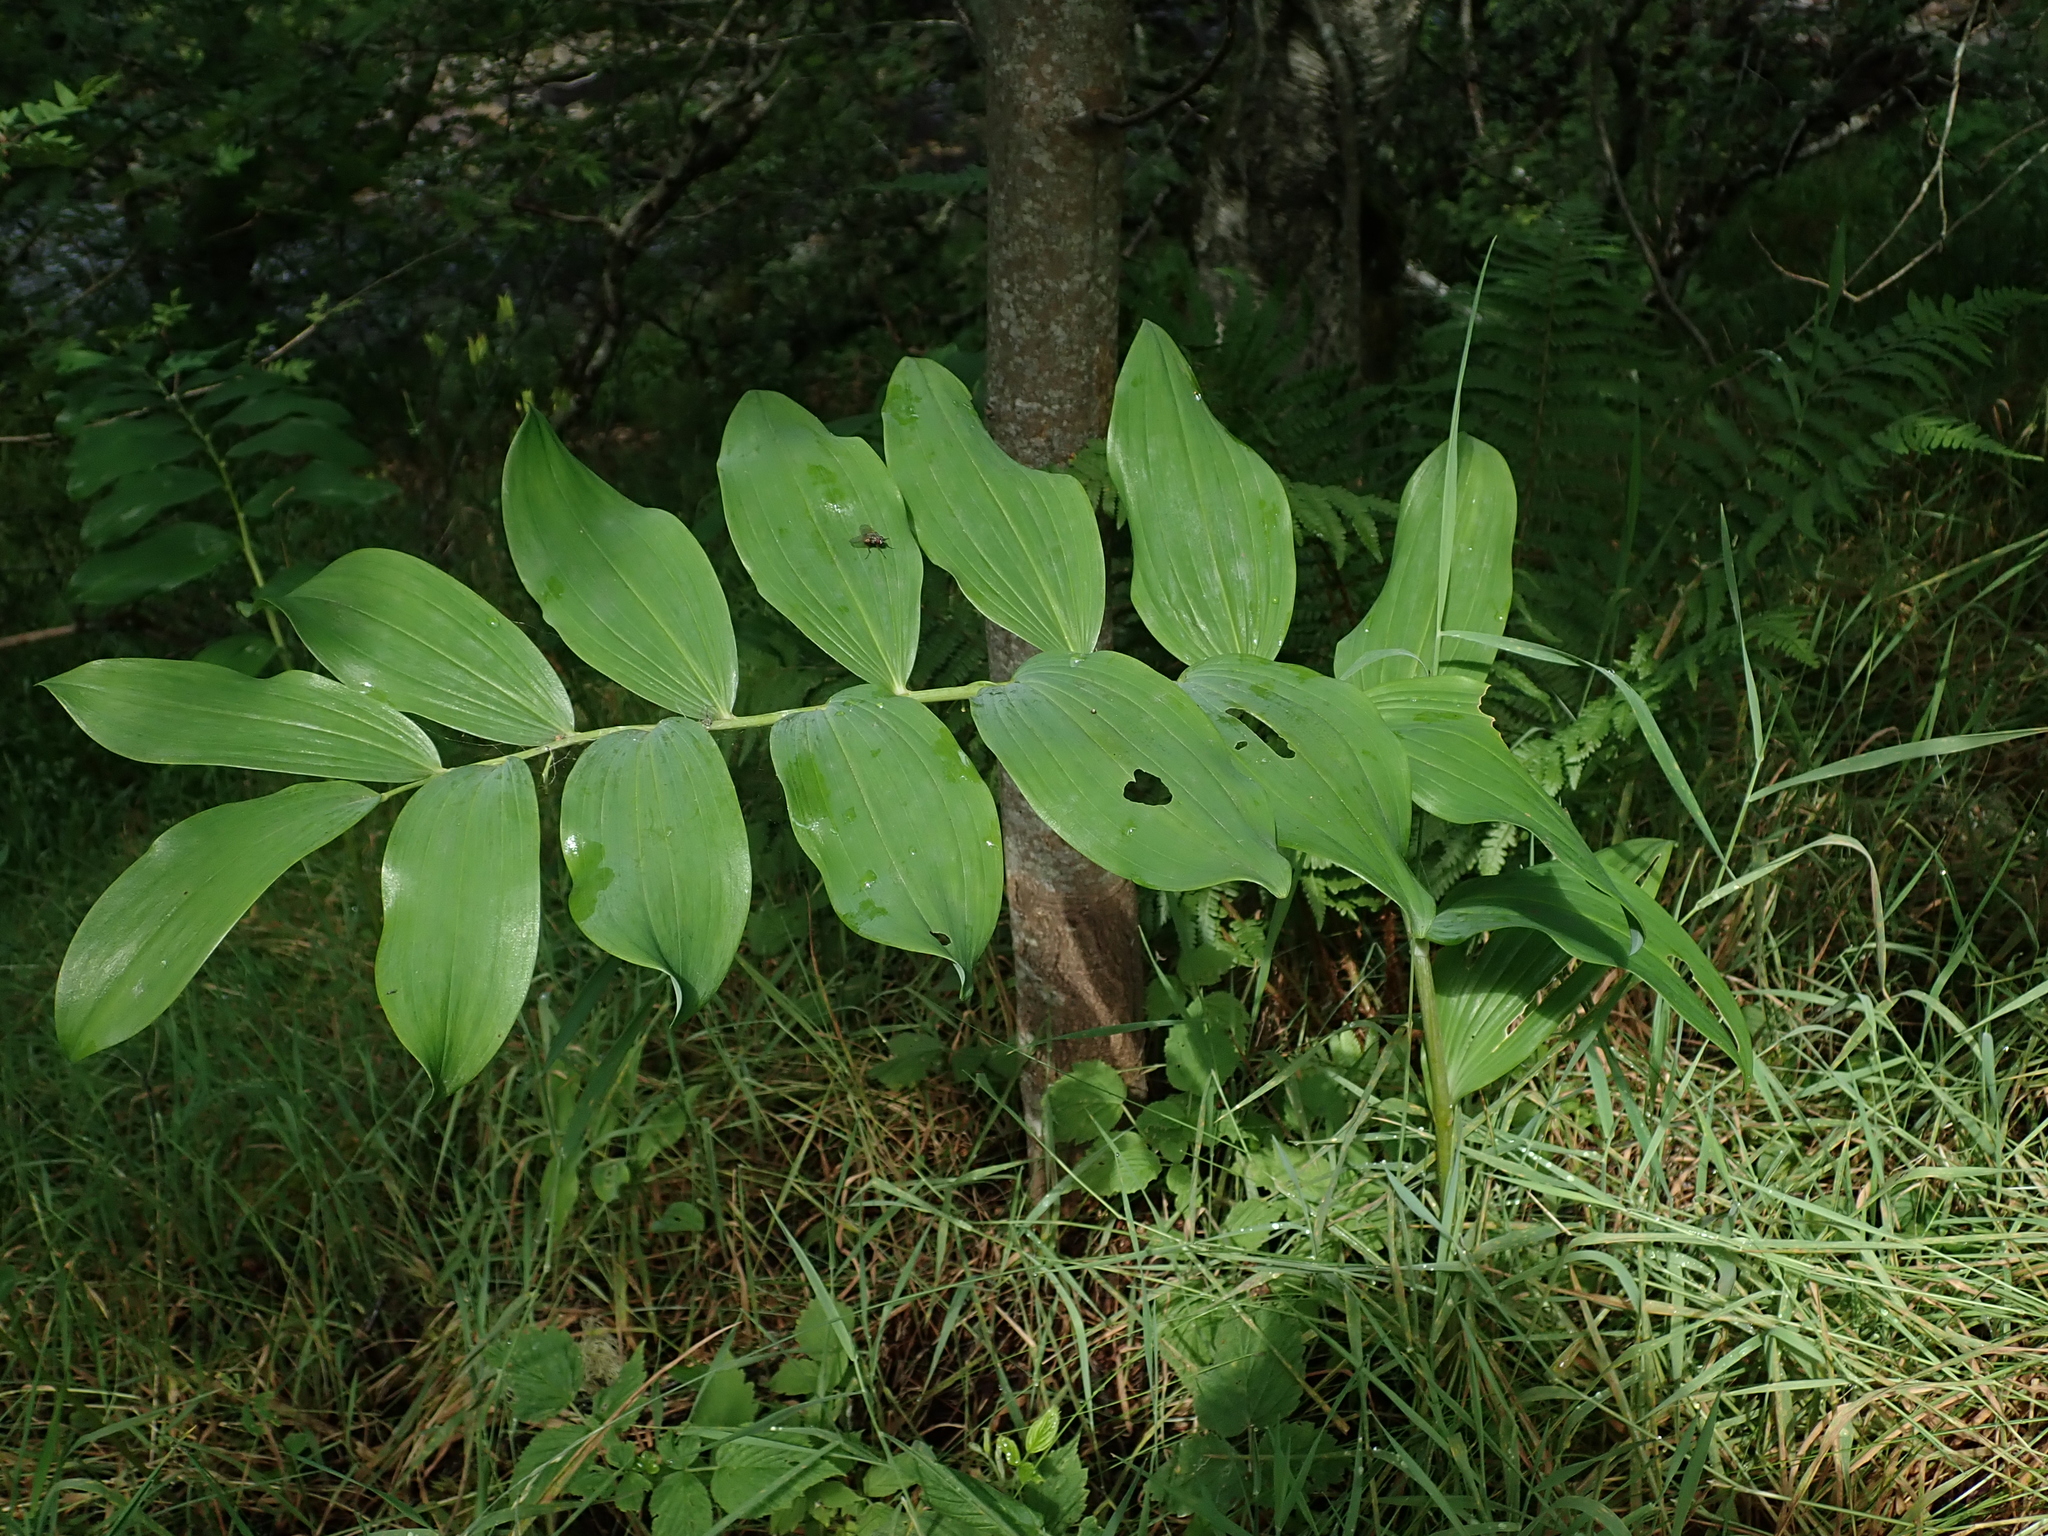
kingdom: Plantae
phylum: Tracheophyta
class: Liliopsida
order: Asparagales
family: Asparagaceae
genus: Polygonatum
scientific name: Polygonatum multiflorum
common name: Solomon's-seal
